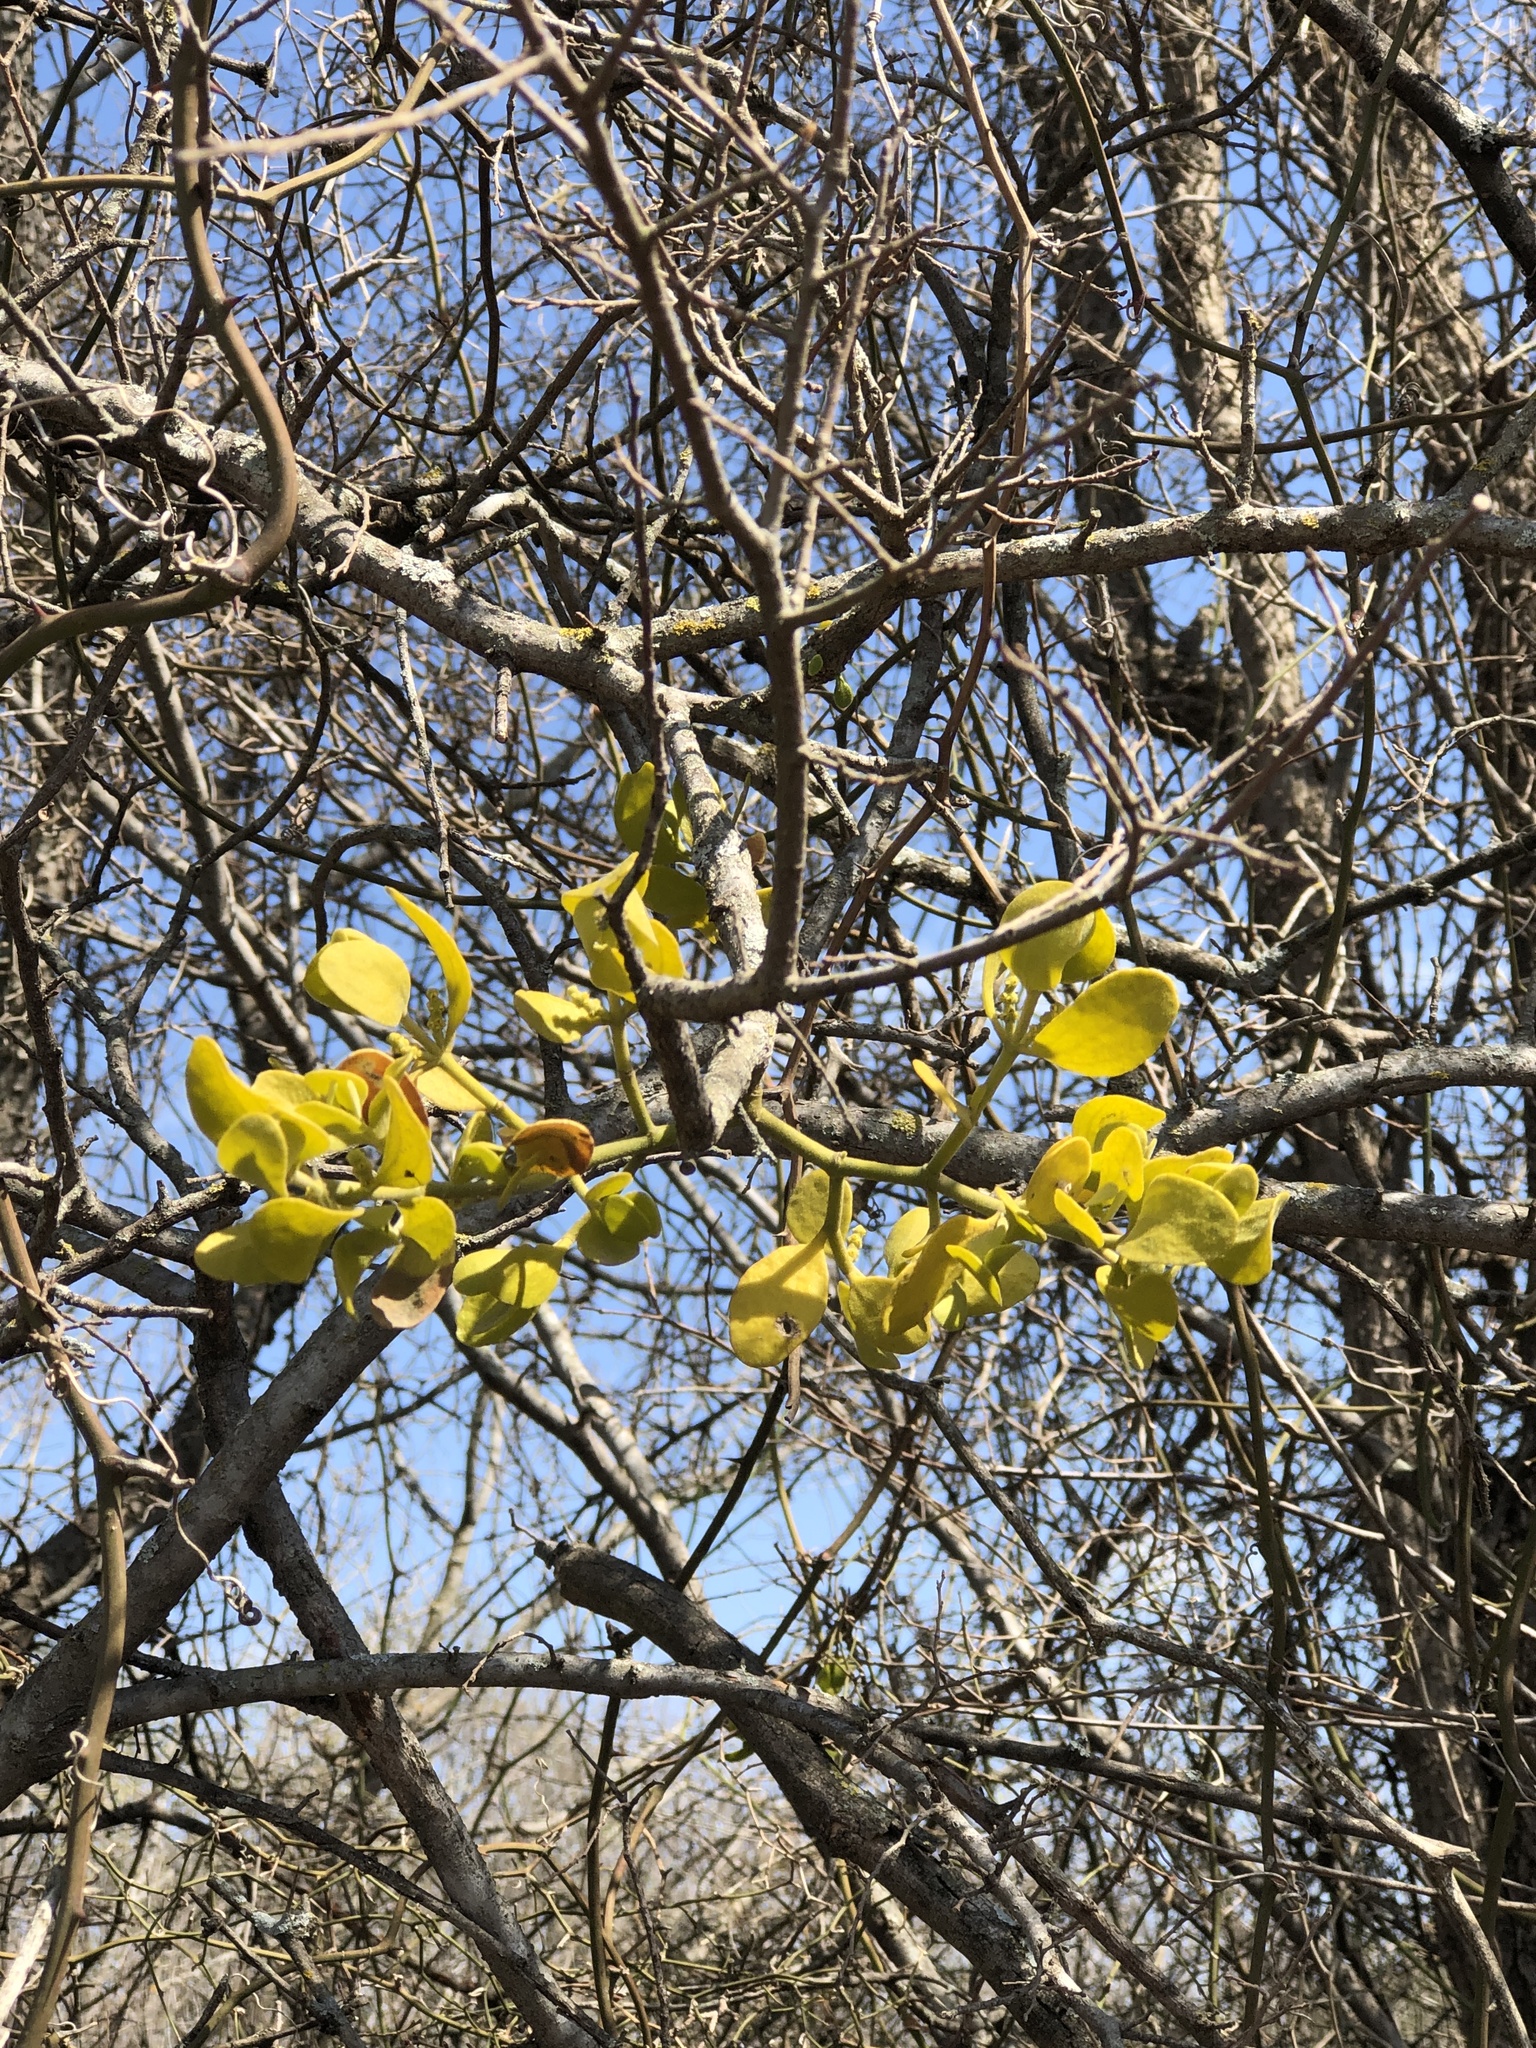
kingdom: Plantae
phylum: Tracheophyta
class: Magnoliopsida
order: Santalales
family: Viscaceae
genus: Phoradendron
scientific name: Phoradendron leucarpum
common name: Pacific mistletoe
